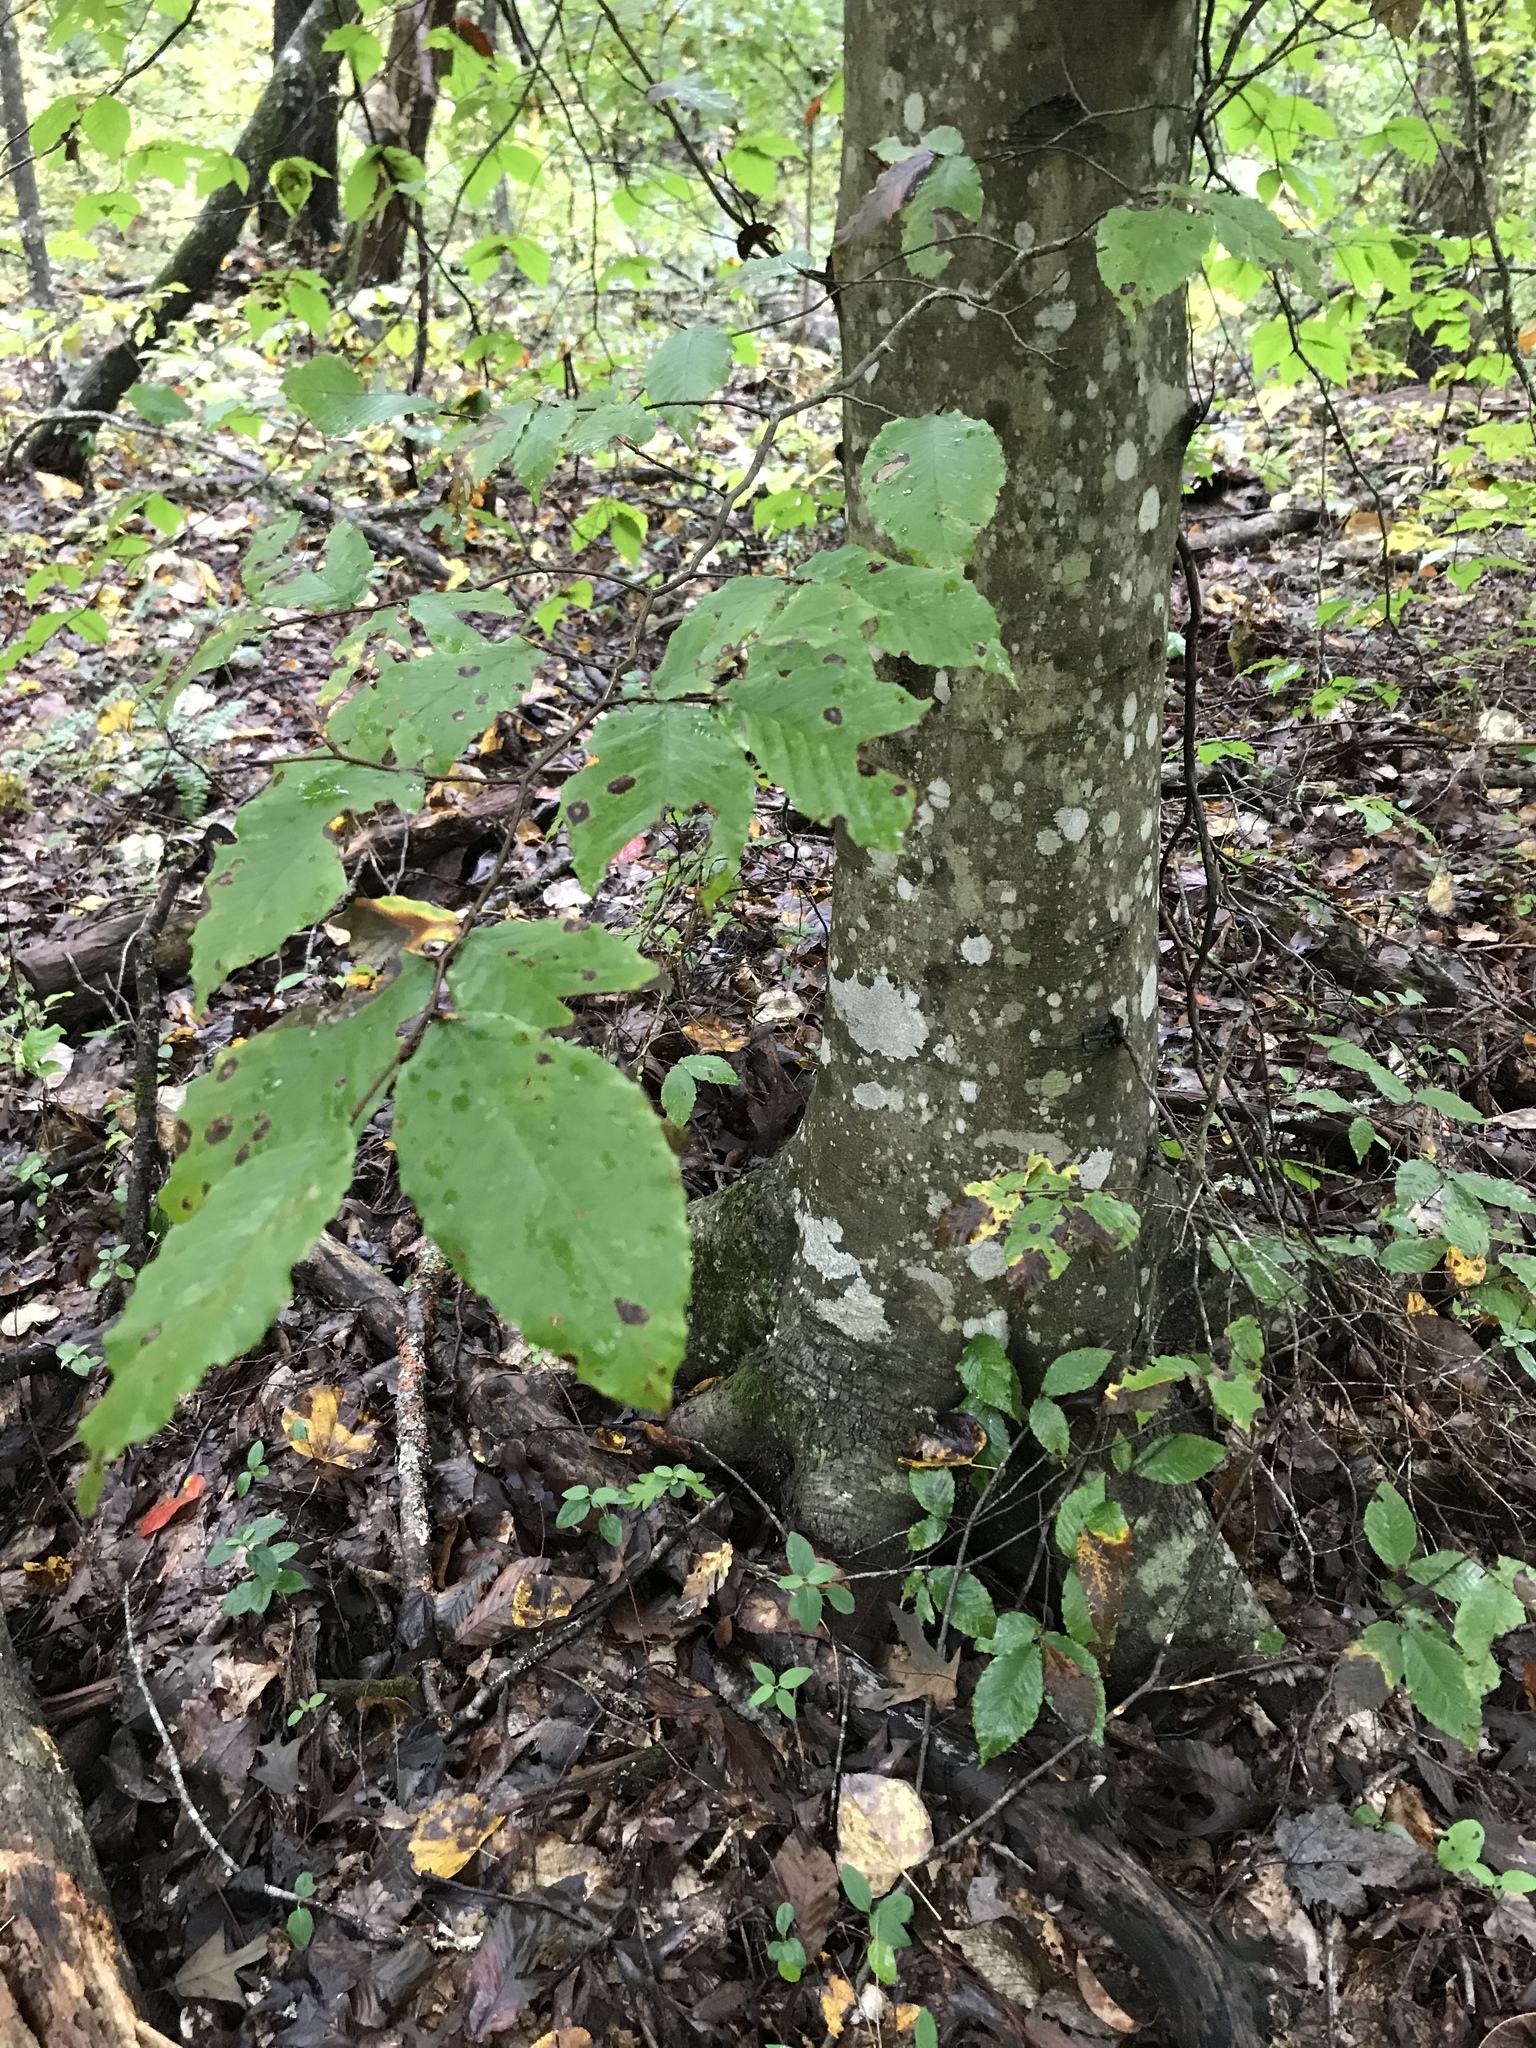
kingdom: Plantae
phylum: Tracheophyta
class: Magnoliopsida
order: Fagales
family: Fagaceae
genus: Fagus
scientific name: Fagus grandifolia
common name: American beech
